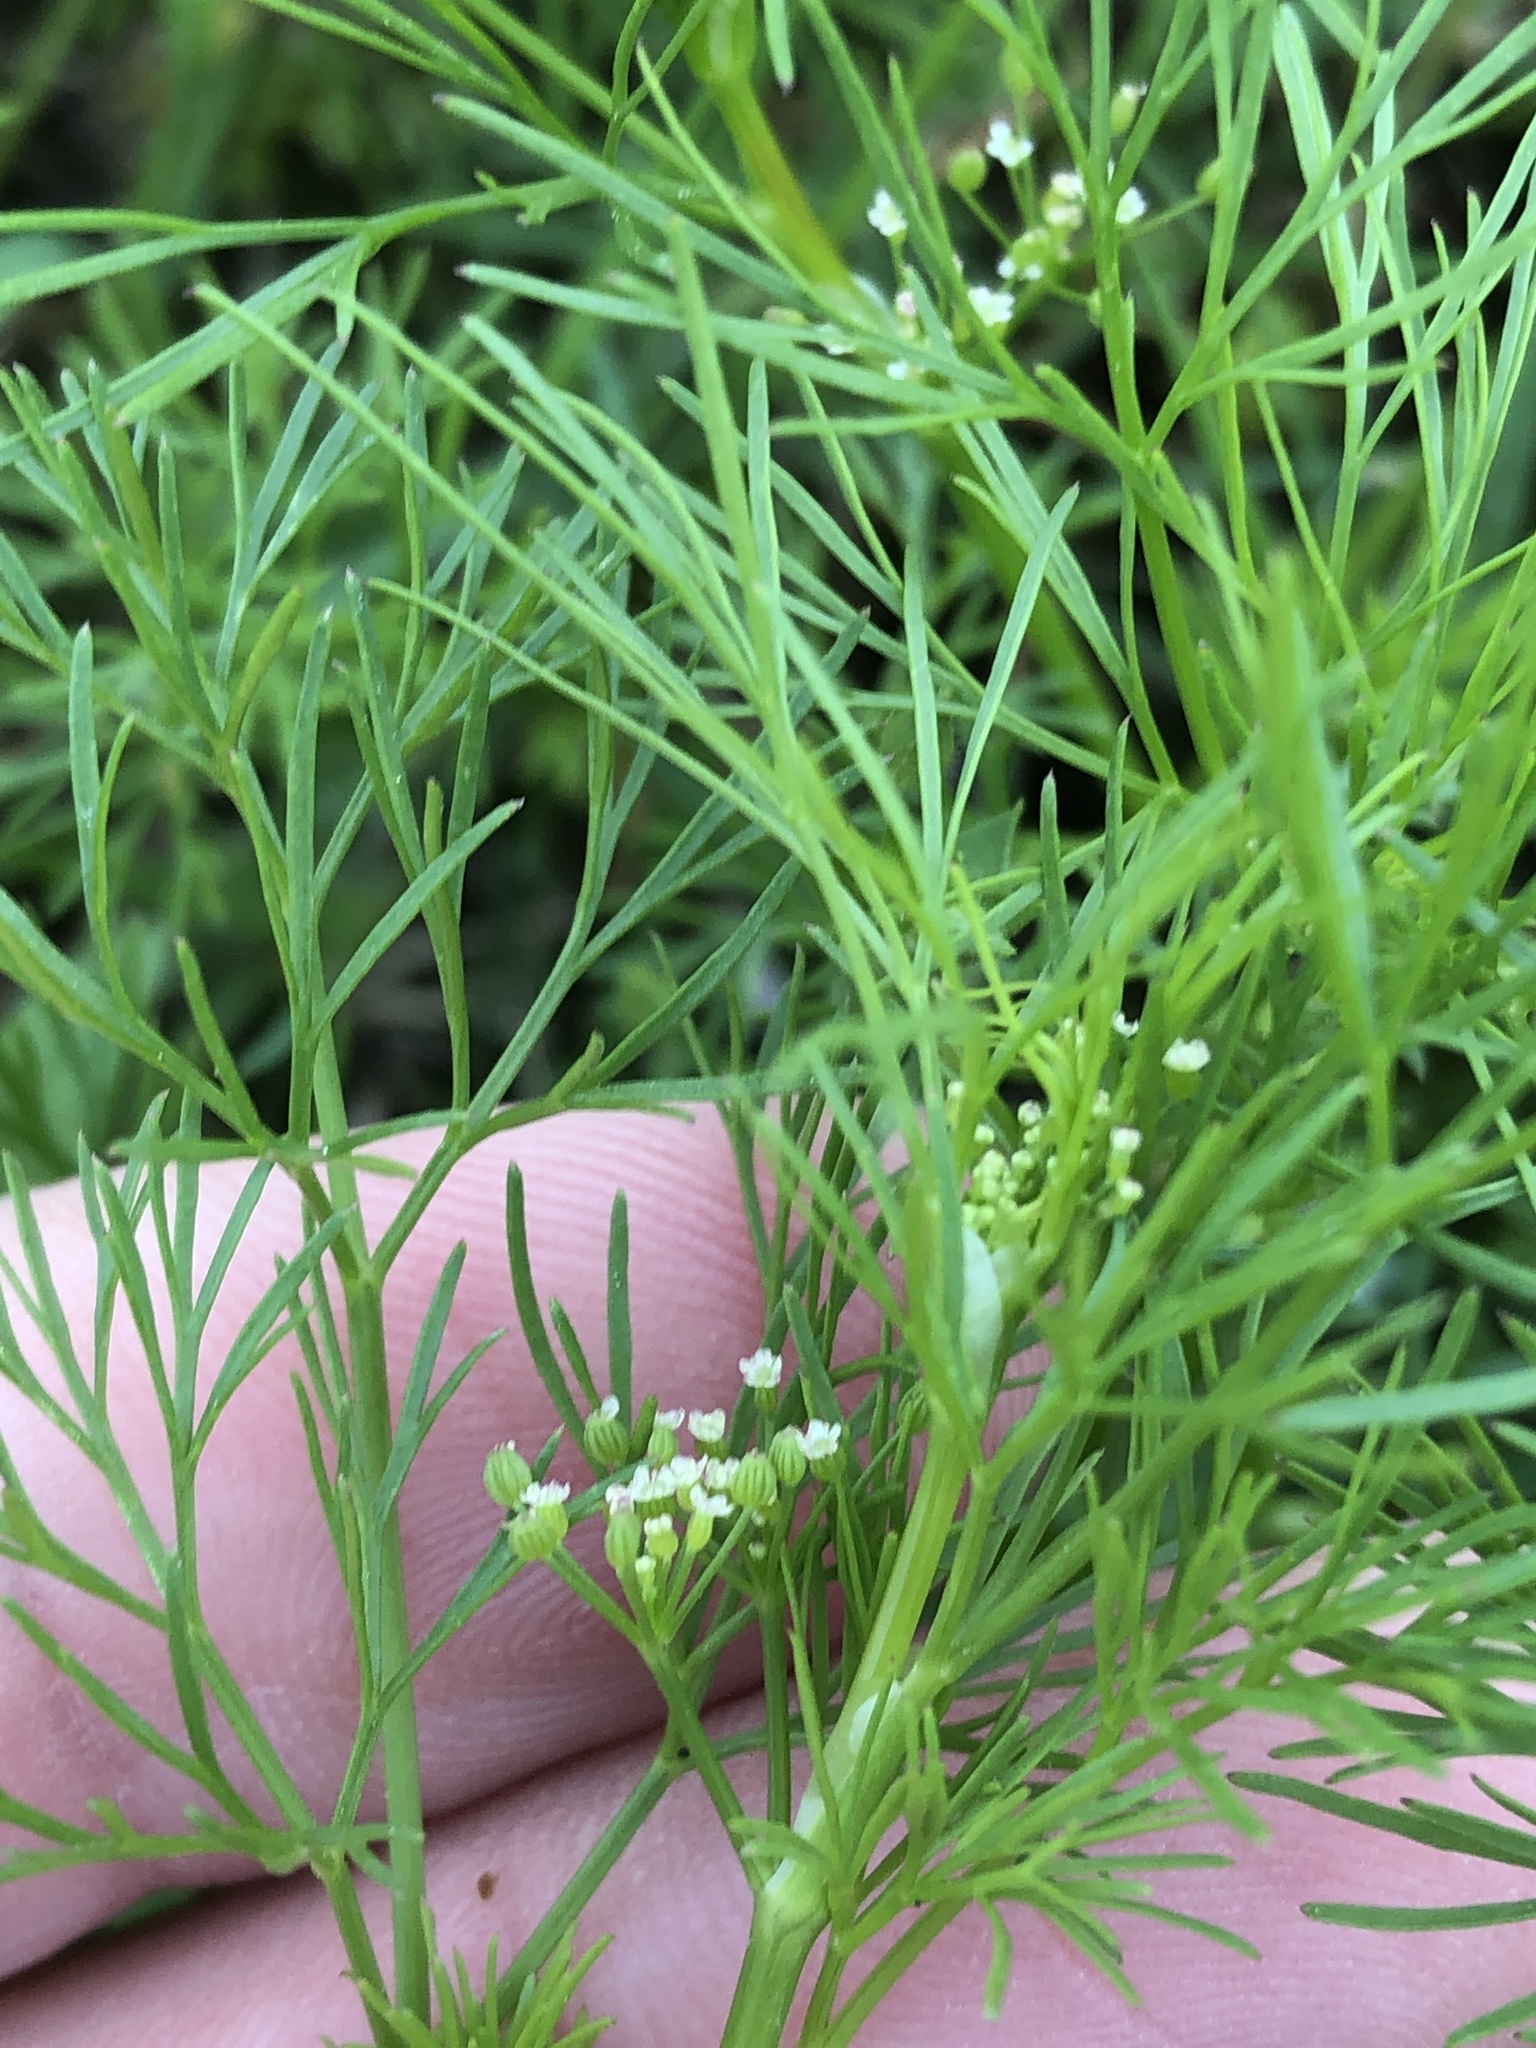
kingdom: Plantae
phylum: Tracheophyta
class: Magnoliopsida
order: Apiales
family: Apiaceae
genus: Cyclospermum
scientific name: Cyclospermum leptophyllum
